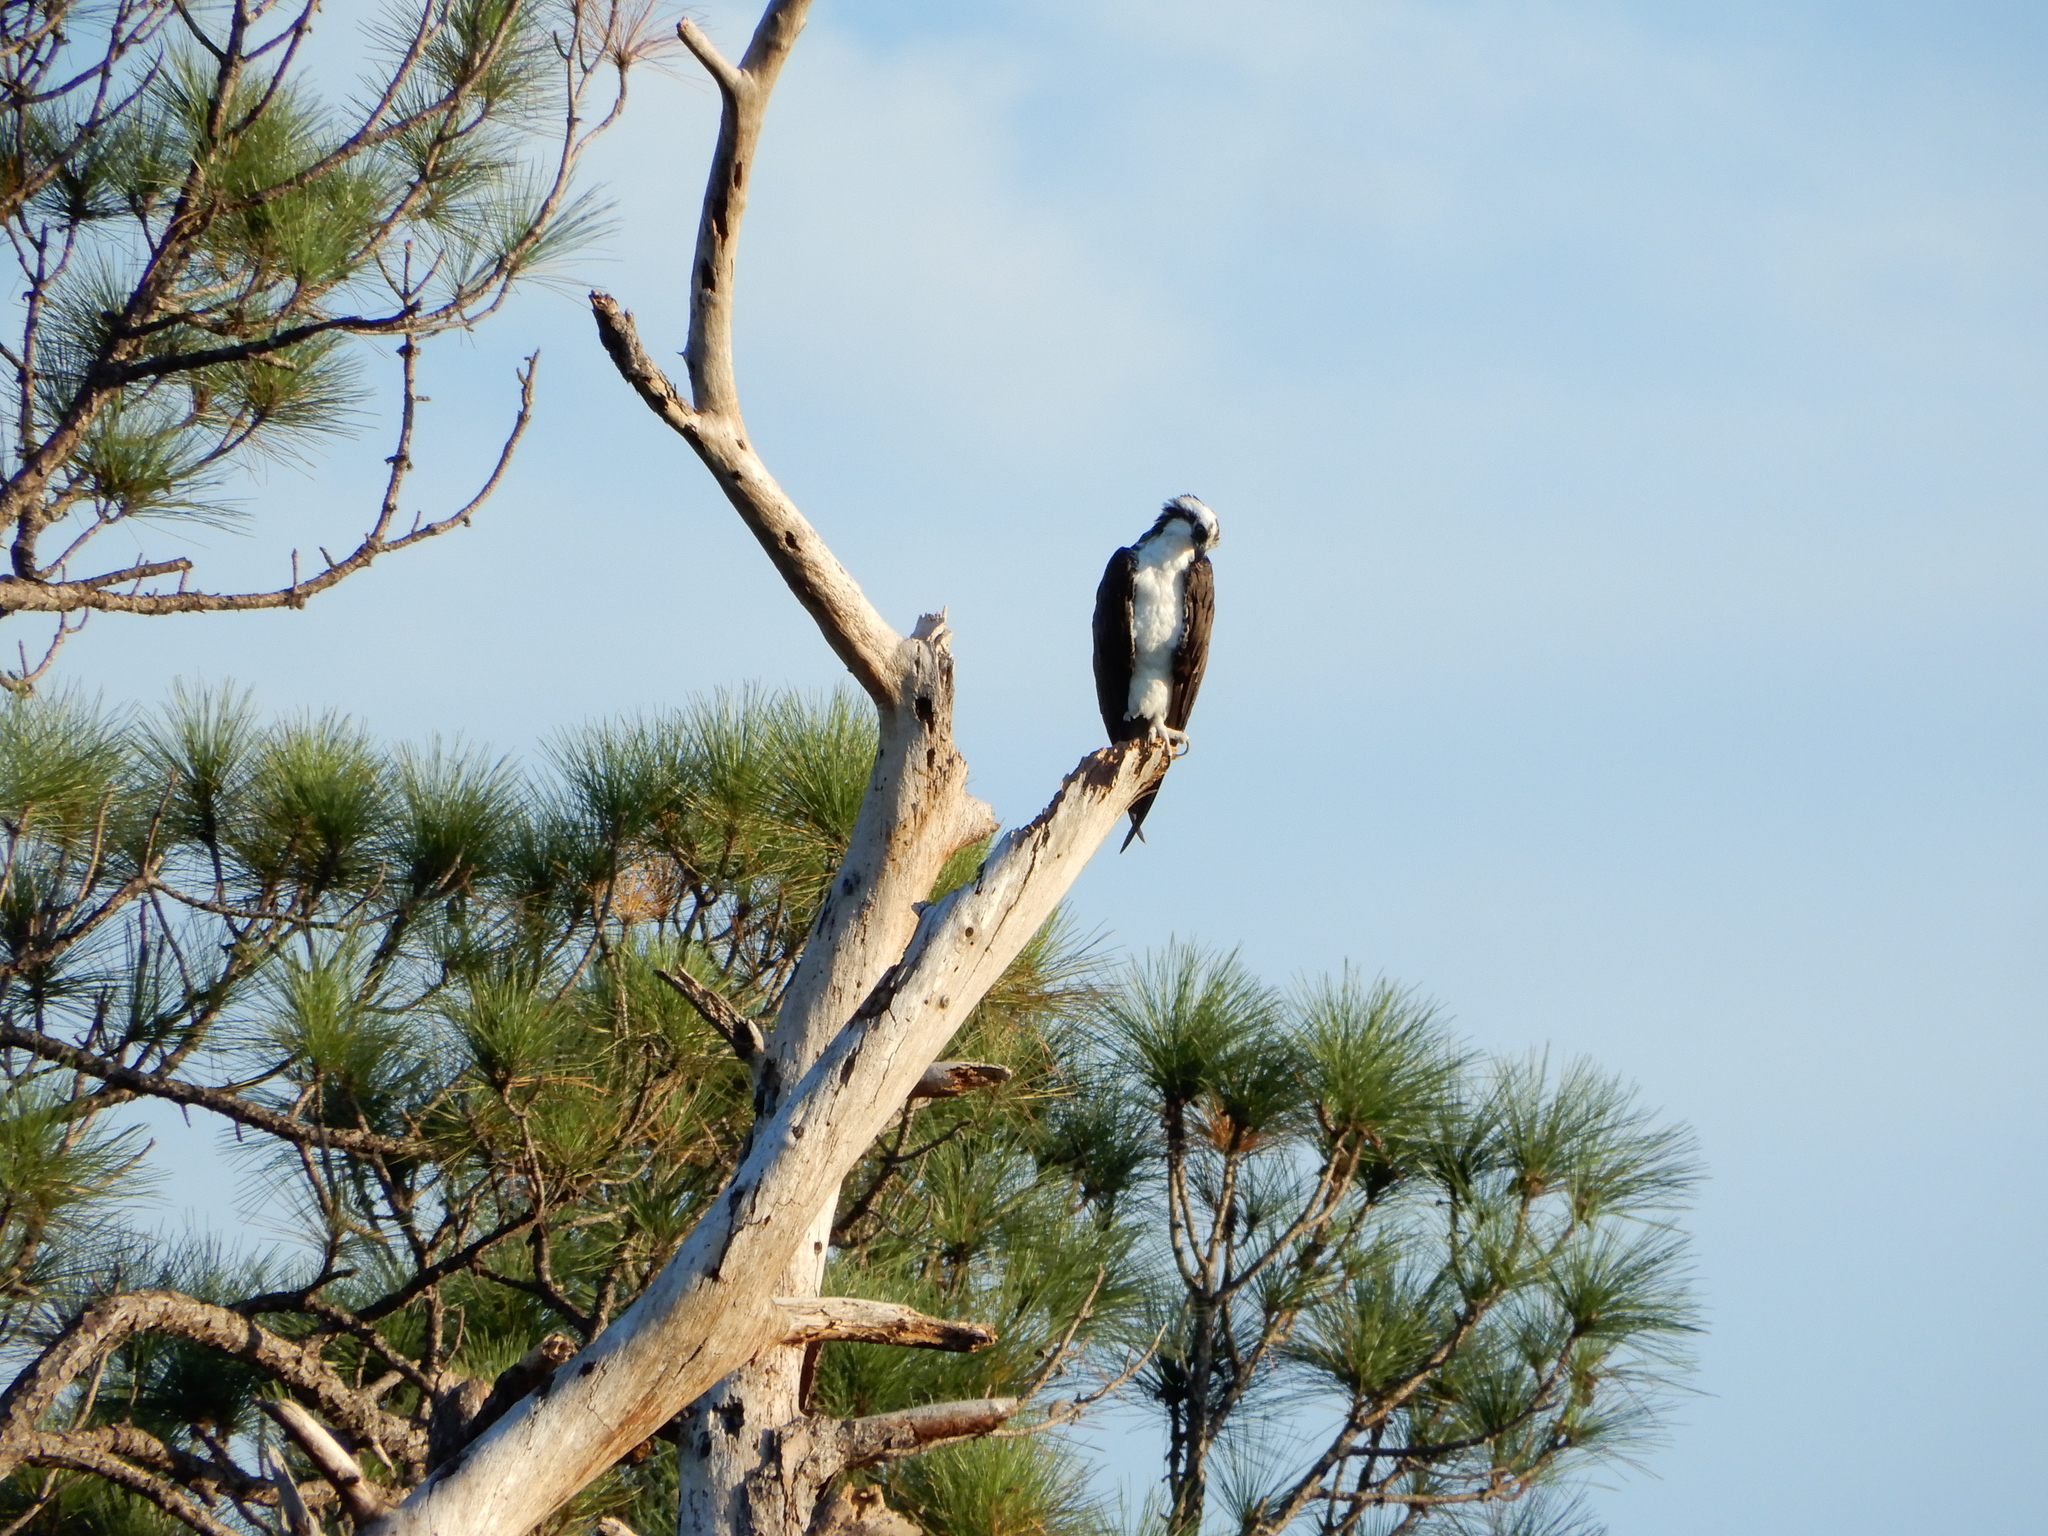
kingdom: Animalia
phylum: Chordata
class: Aves
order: Accipitriformes
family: Pandionidae
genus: Pandion
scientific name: Pandion haliaetus
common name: Osprey
